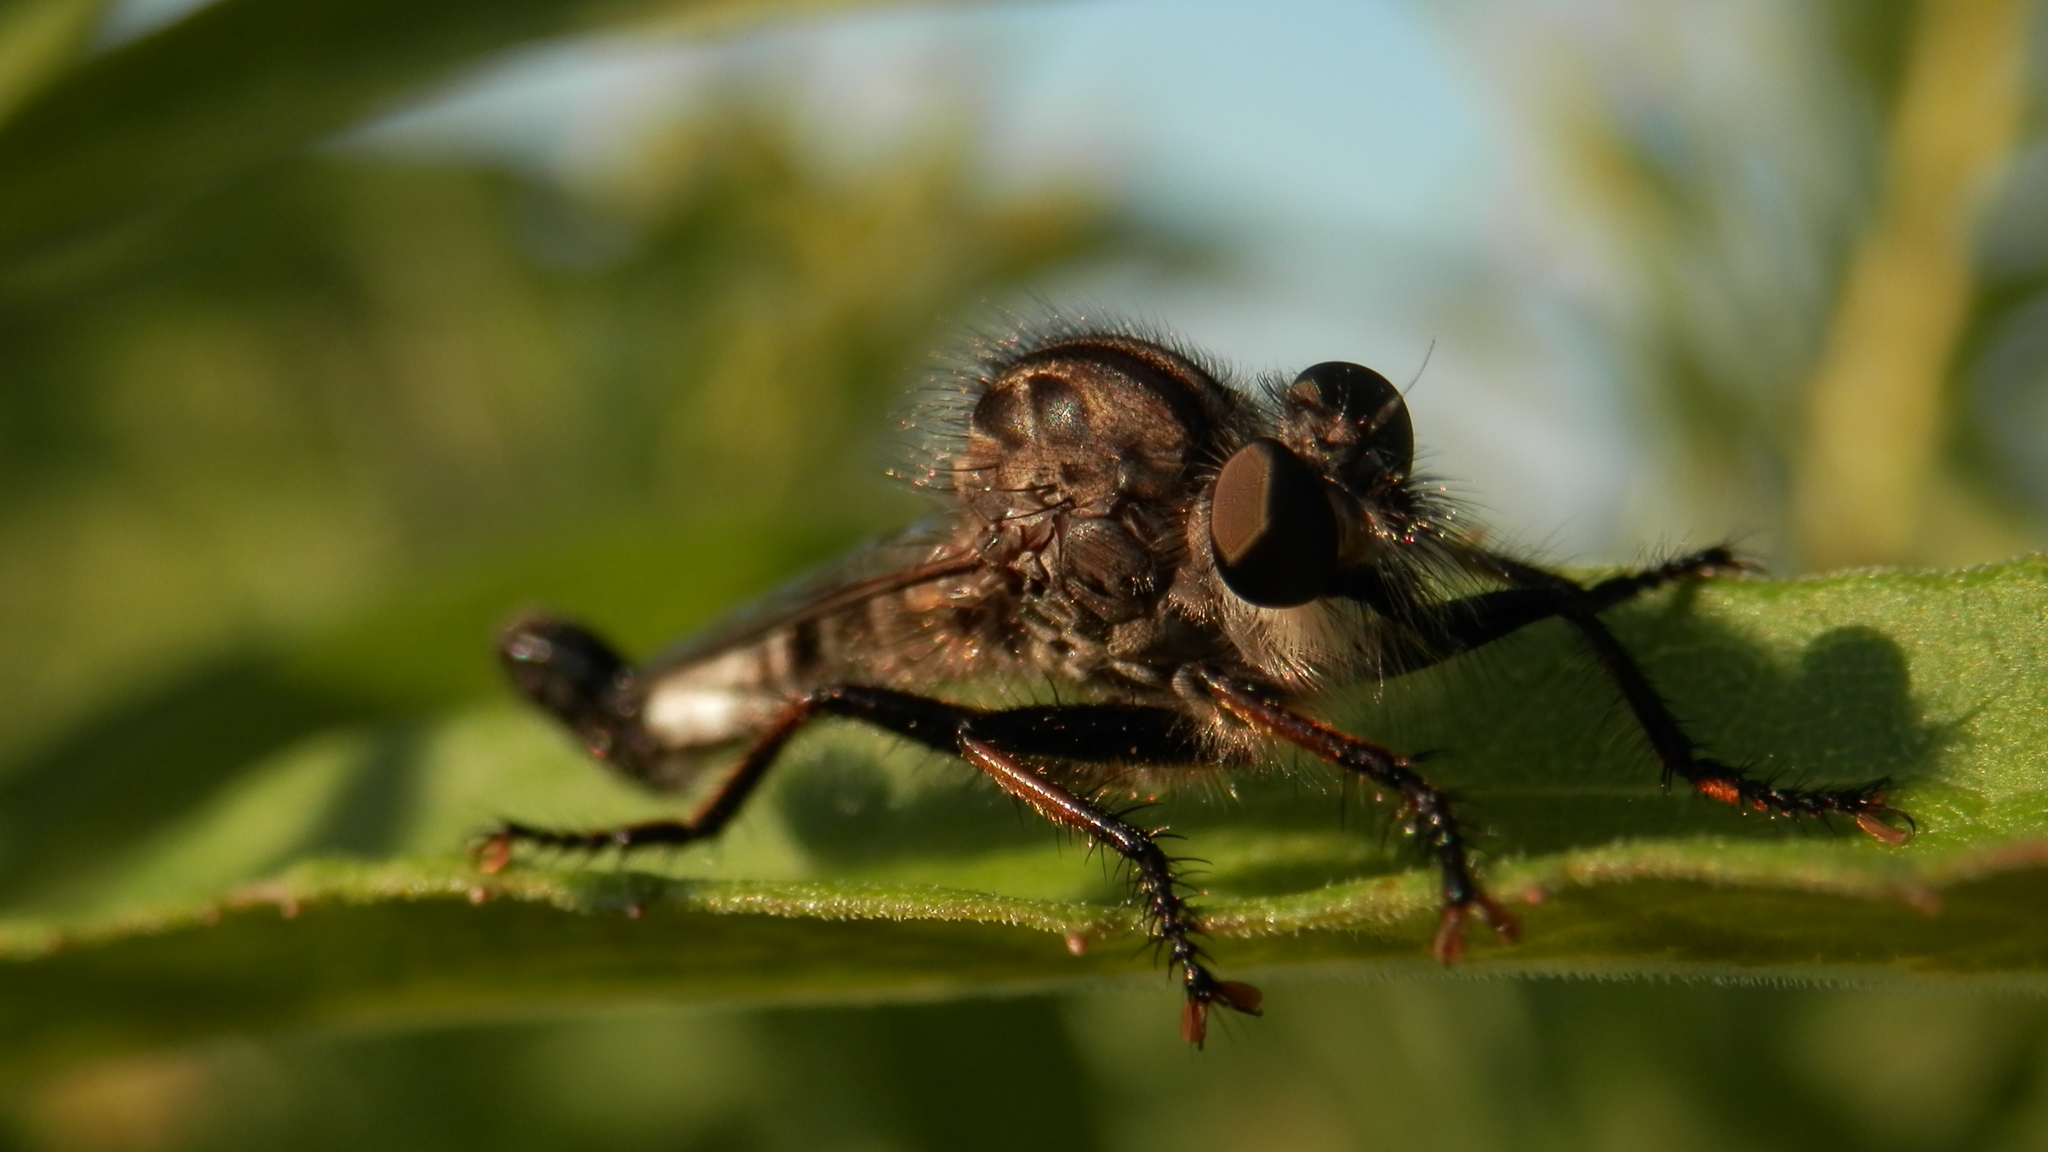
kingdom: Animalia
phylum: Arthropoda
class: Insecta
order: Diptera
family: Asilidae
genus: Efferia
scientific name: Efferia aestuans
